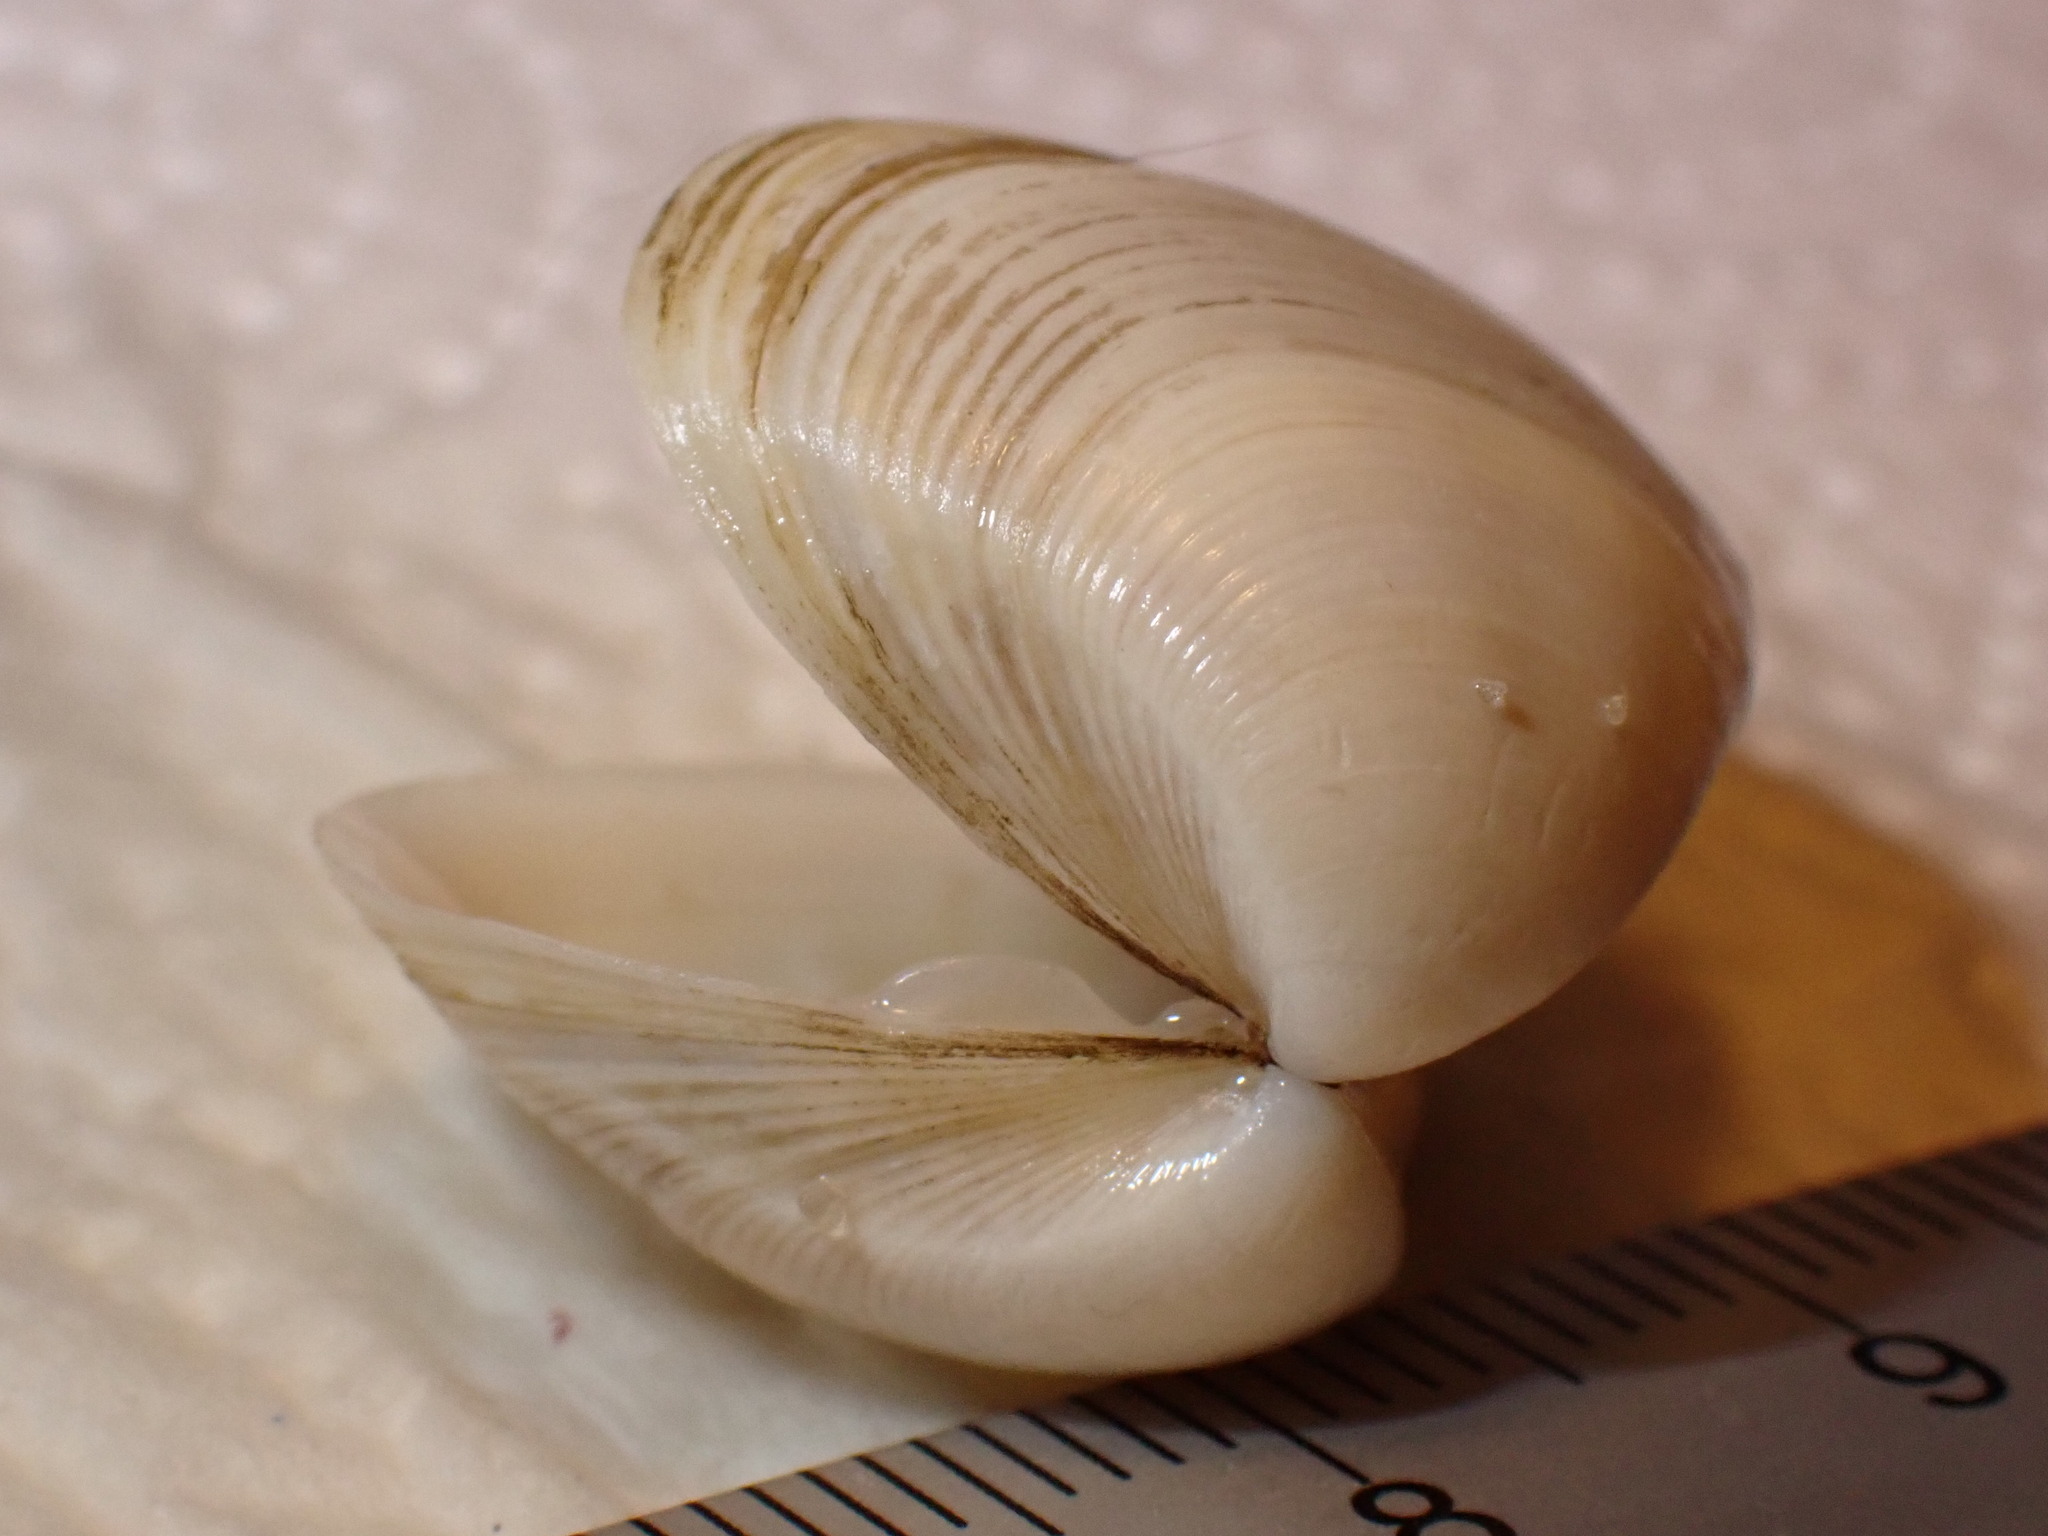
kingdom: Animalia
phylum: Mollusca
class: Bivalvia
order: Venerida
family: Mactridae
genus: Spisula
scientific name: Spisula subtruncata
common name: Cut trough shell
